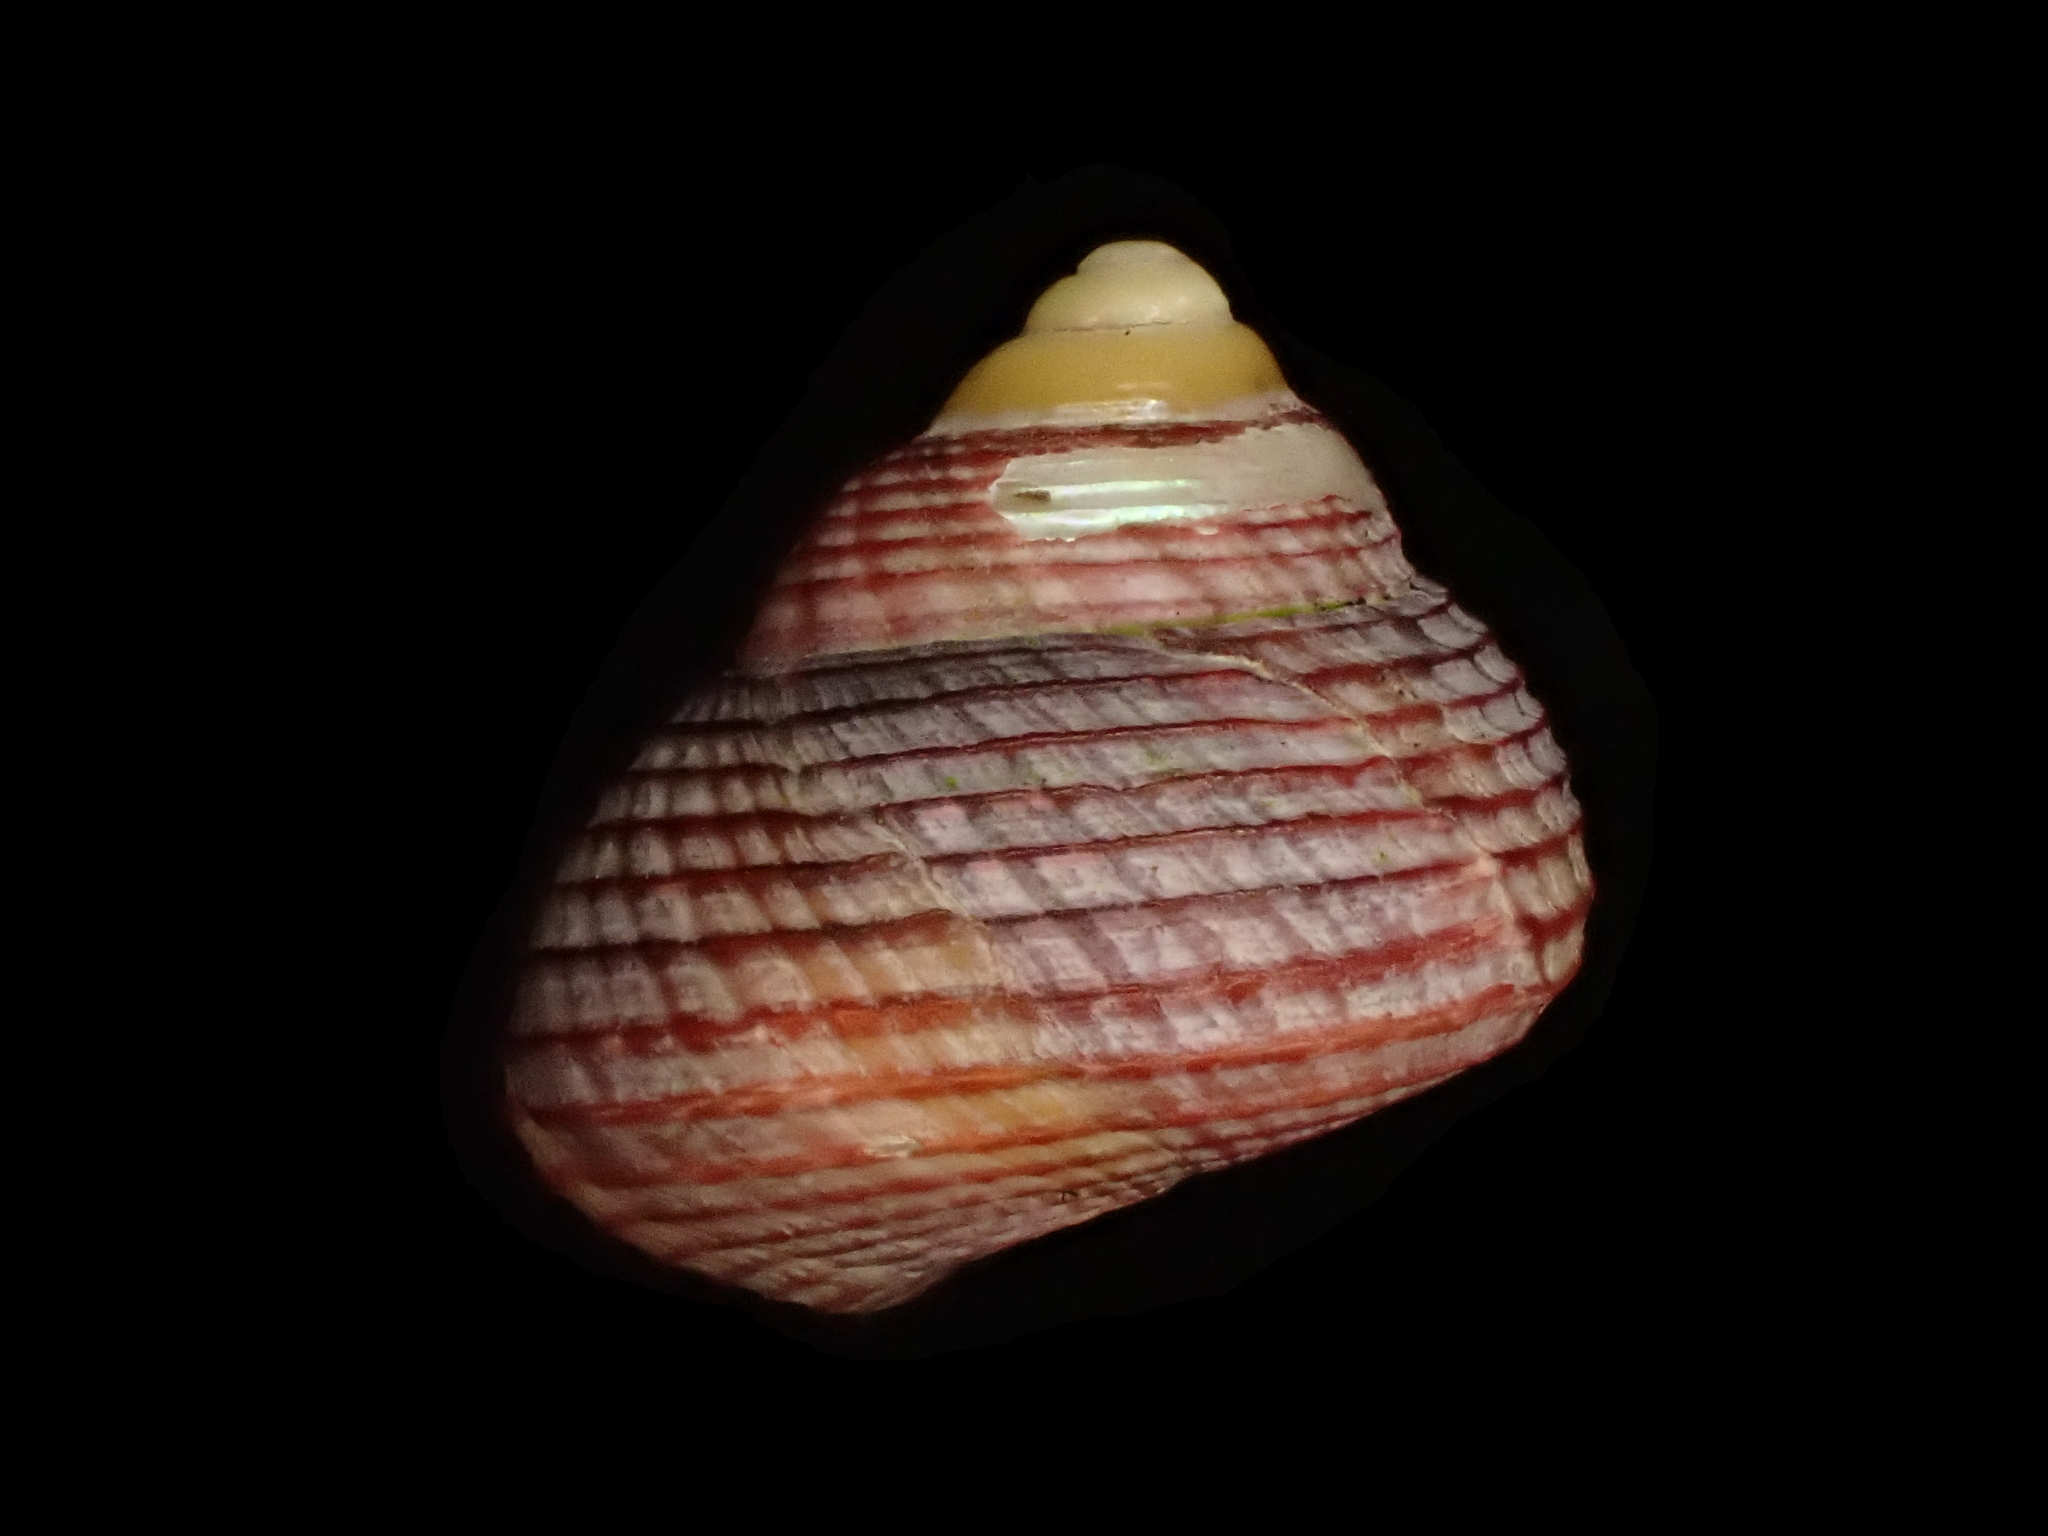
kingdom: Animalia
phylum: Mollusca
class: Gastropoda
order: Trochida
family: Trochidae
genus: Micrelenchus
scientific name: Micrelenchus huttonii
